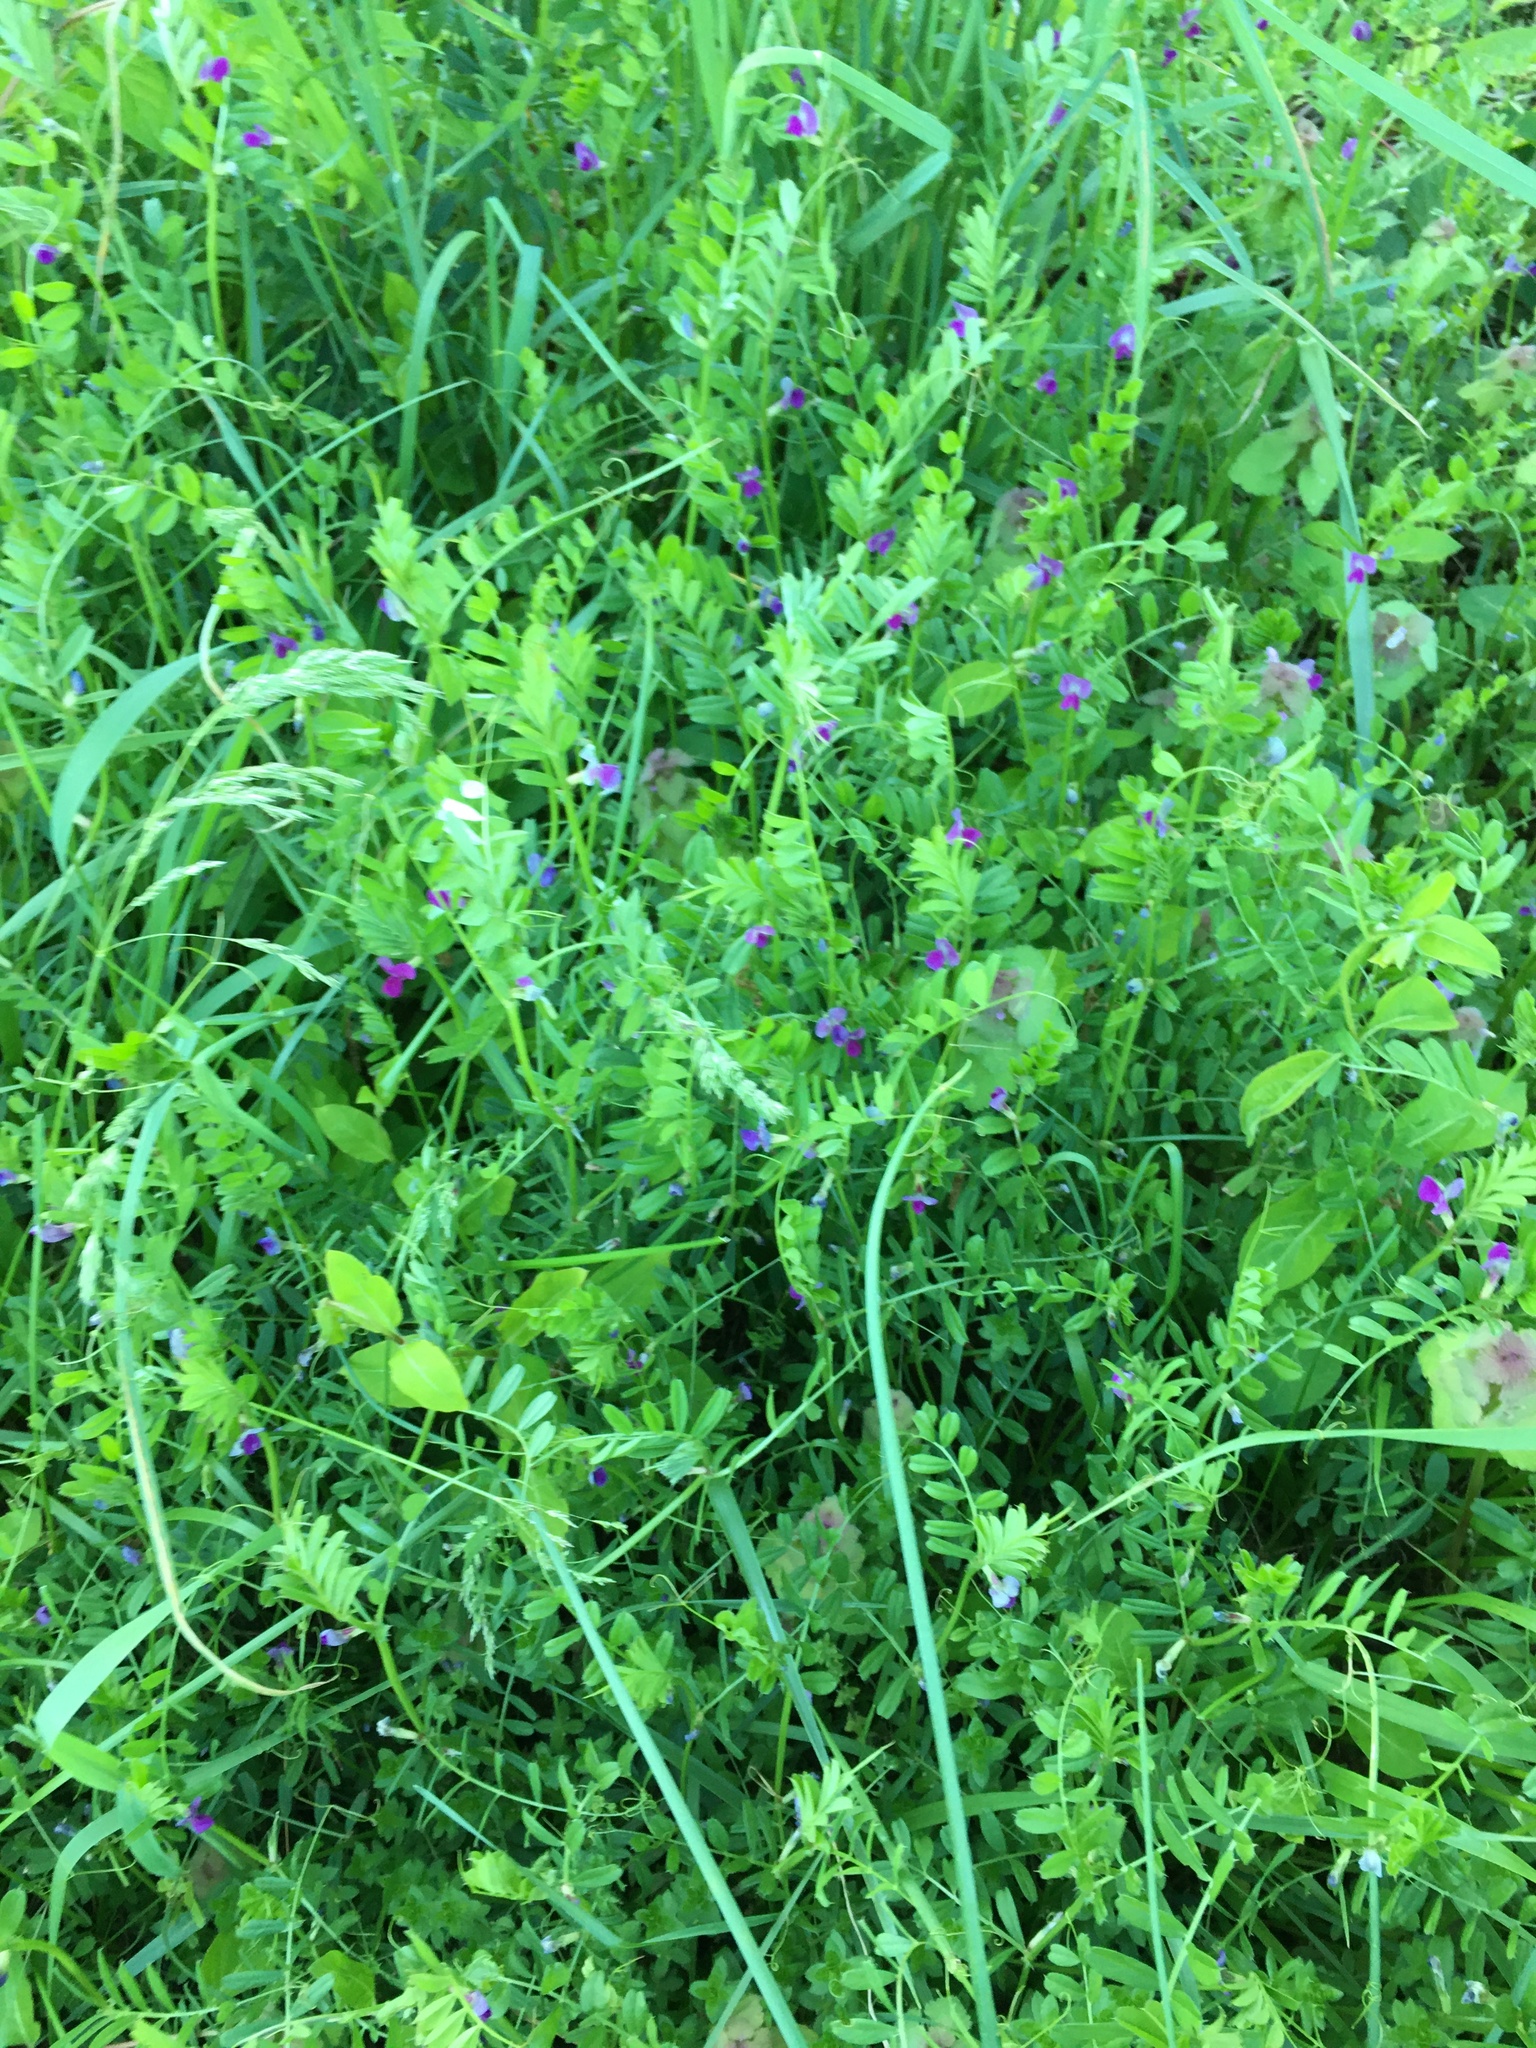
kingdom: Plantae
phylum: Tracheophyta
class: Magnoliopsida
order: Fabales
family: Fabaceae
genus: Vicia
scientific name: Vicia sativa
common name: Garden vetch
